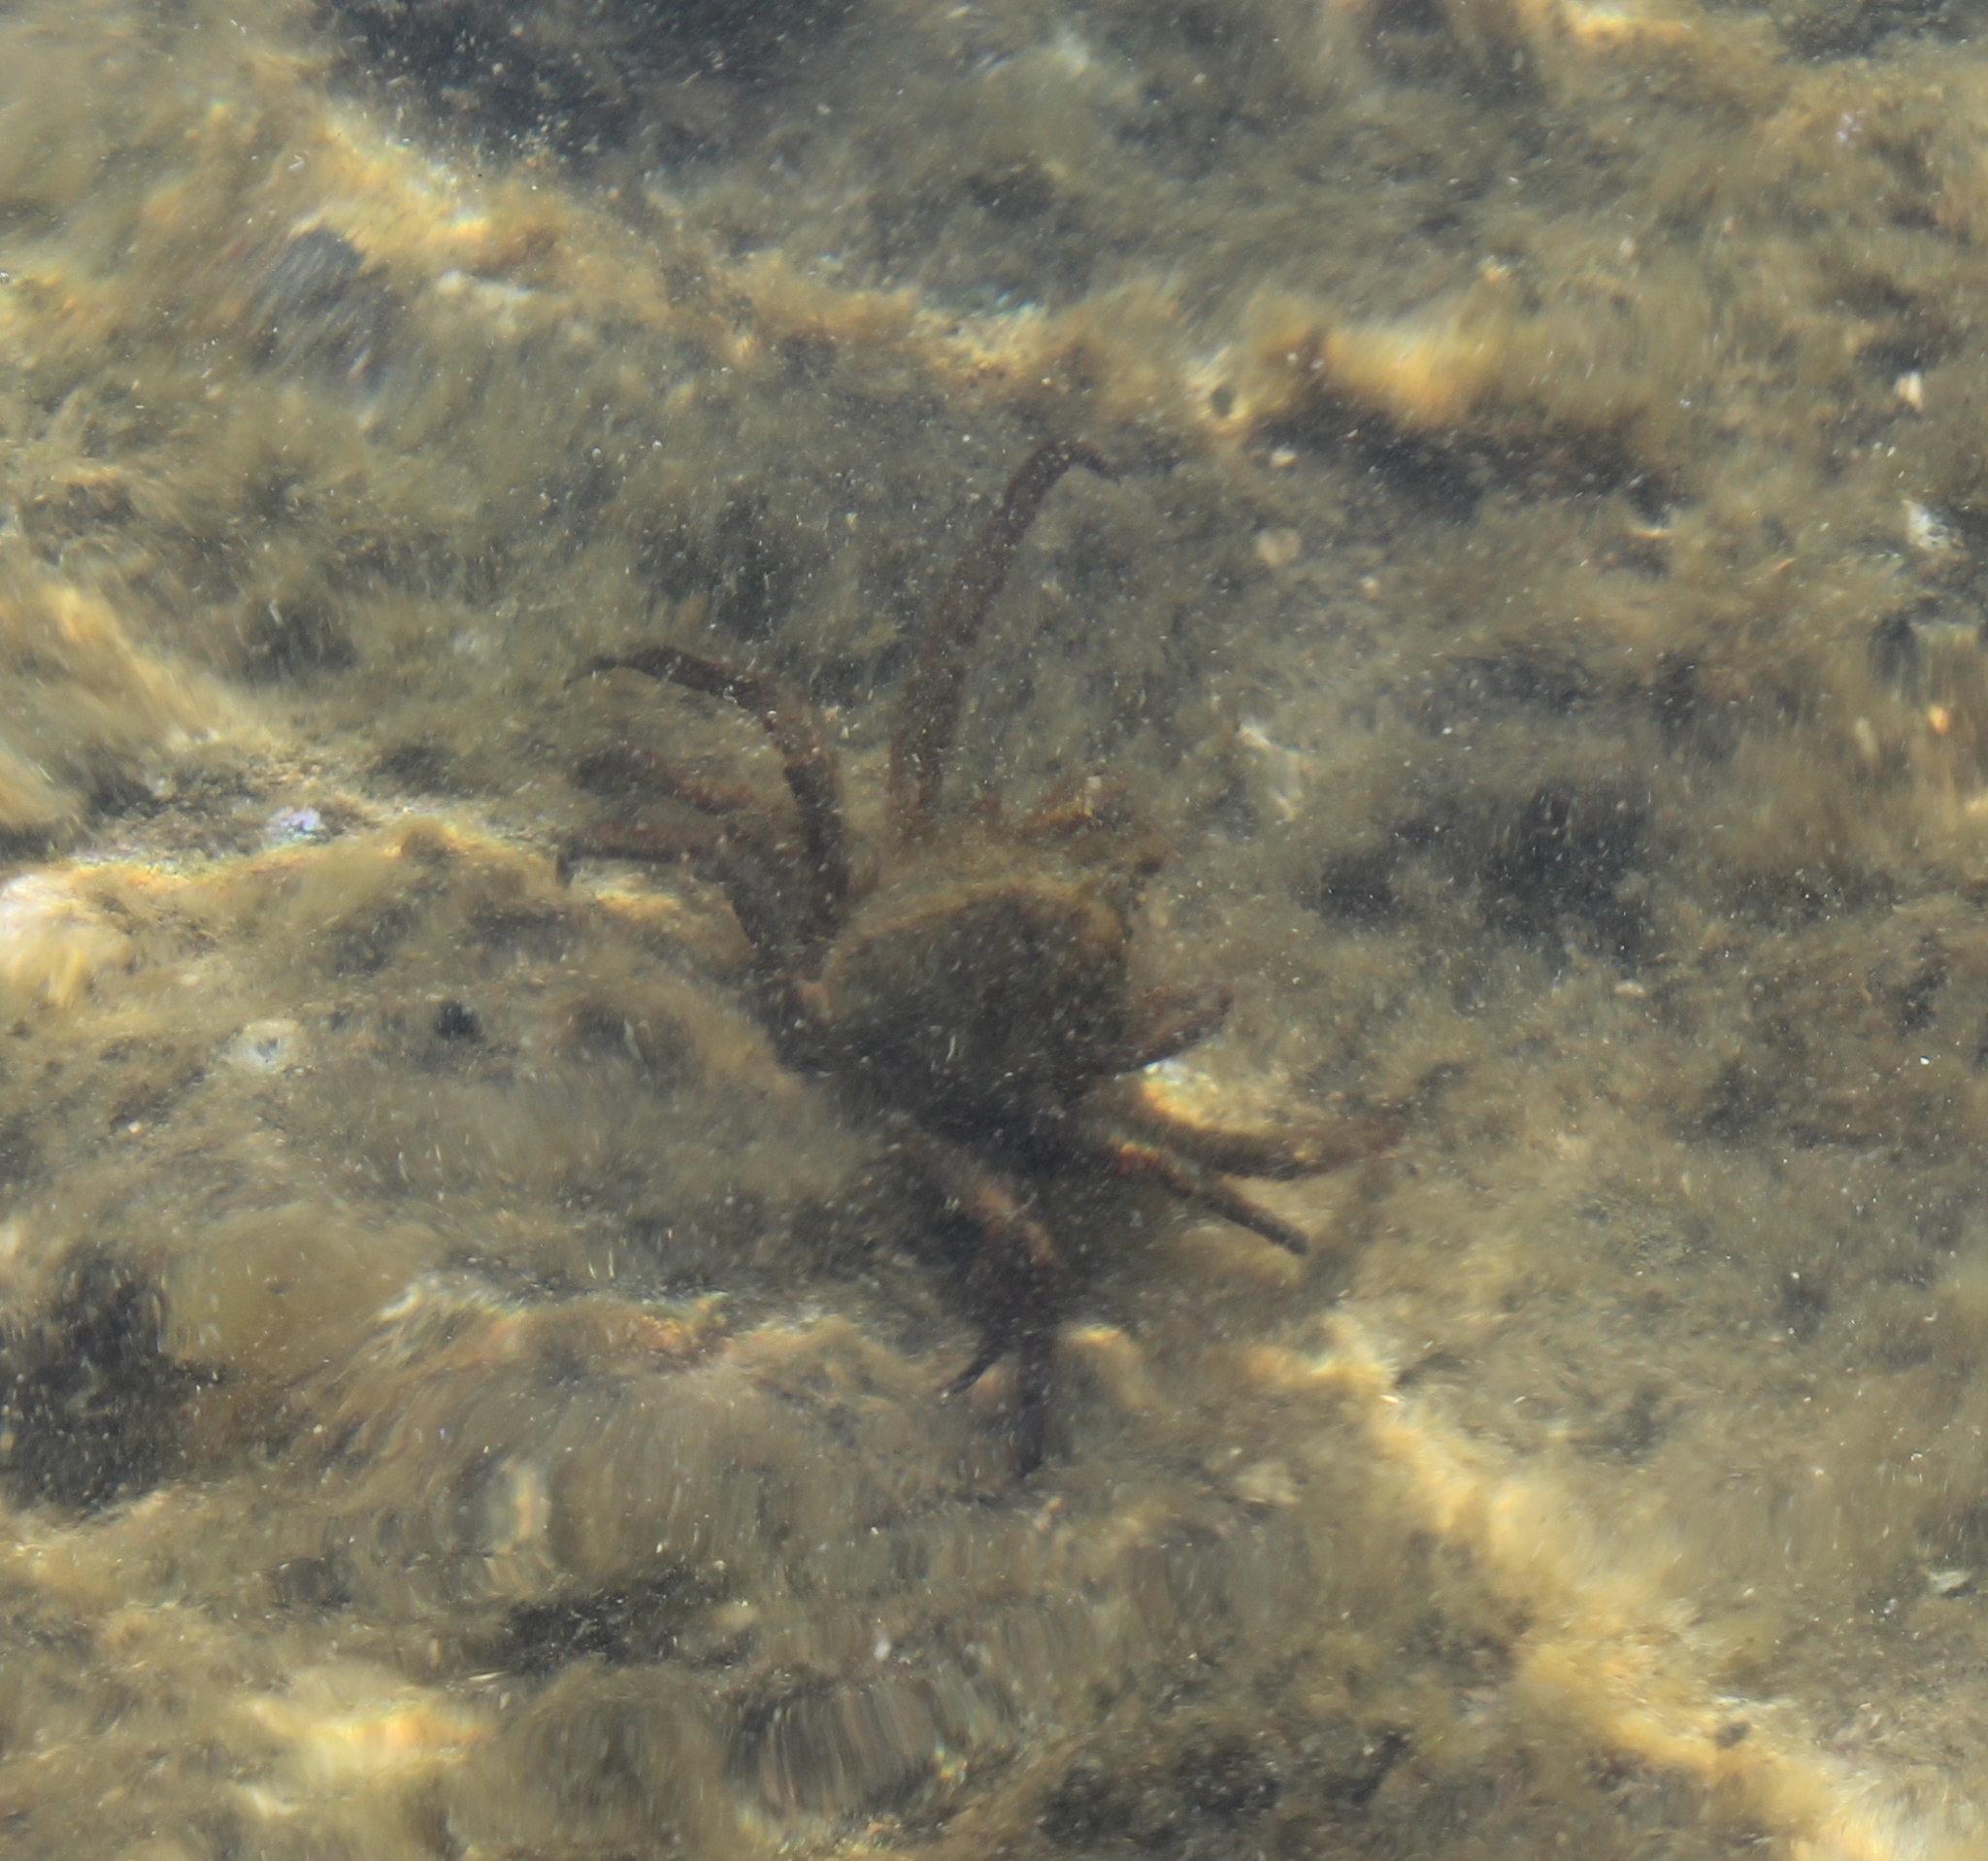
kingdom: Animalia
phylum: Arthropoda
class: Malacostraca
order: Decapoda
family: Epialtidae
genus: Pugettia
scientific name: Pugettia producta
